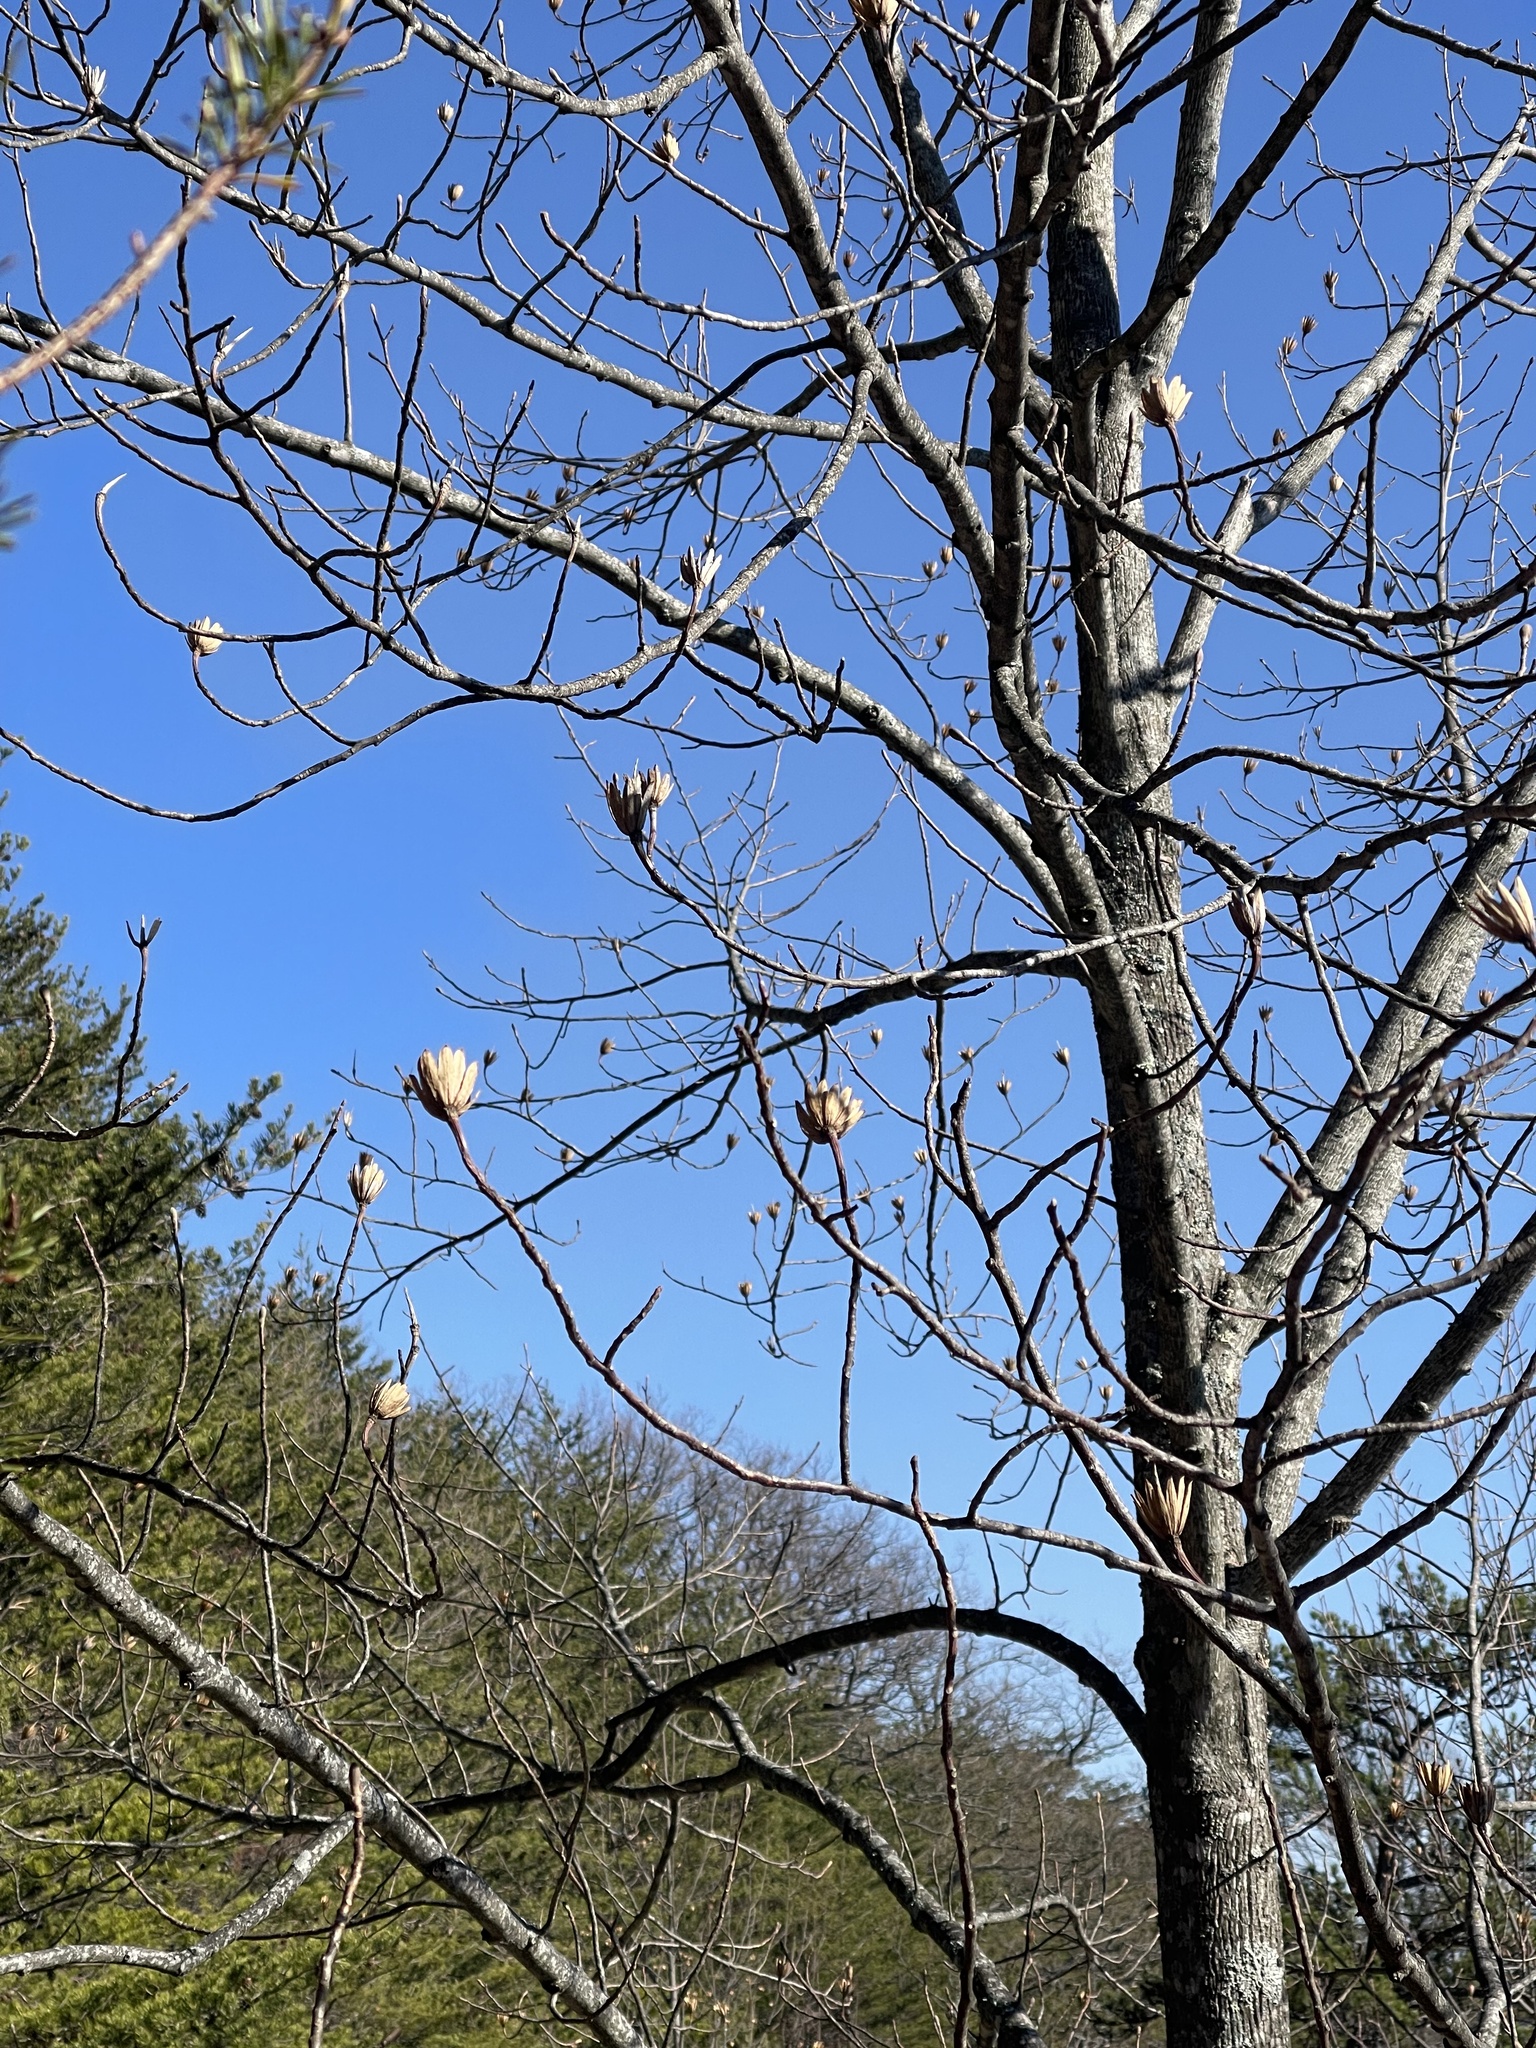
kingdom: Plantae
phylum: Tracheophyta
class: Magnoliopsida
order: Magnoliales
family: Magnoliaceae
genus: Liriodendron
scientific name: Liriodendron tulipifera
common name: Tulip tree
